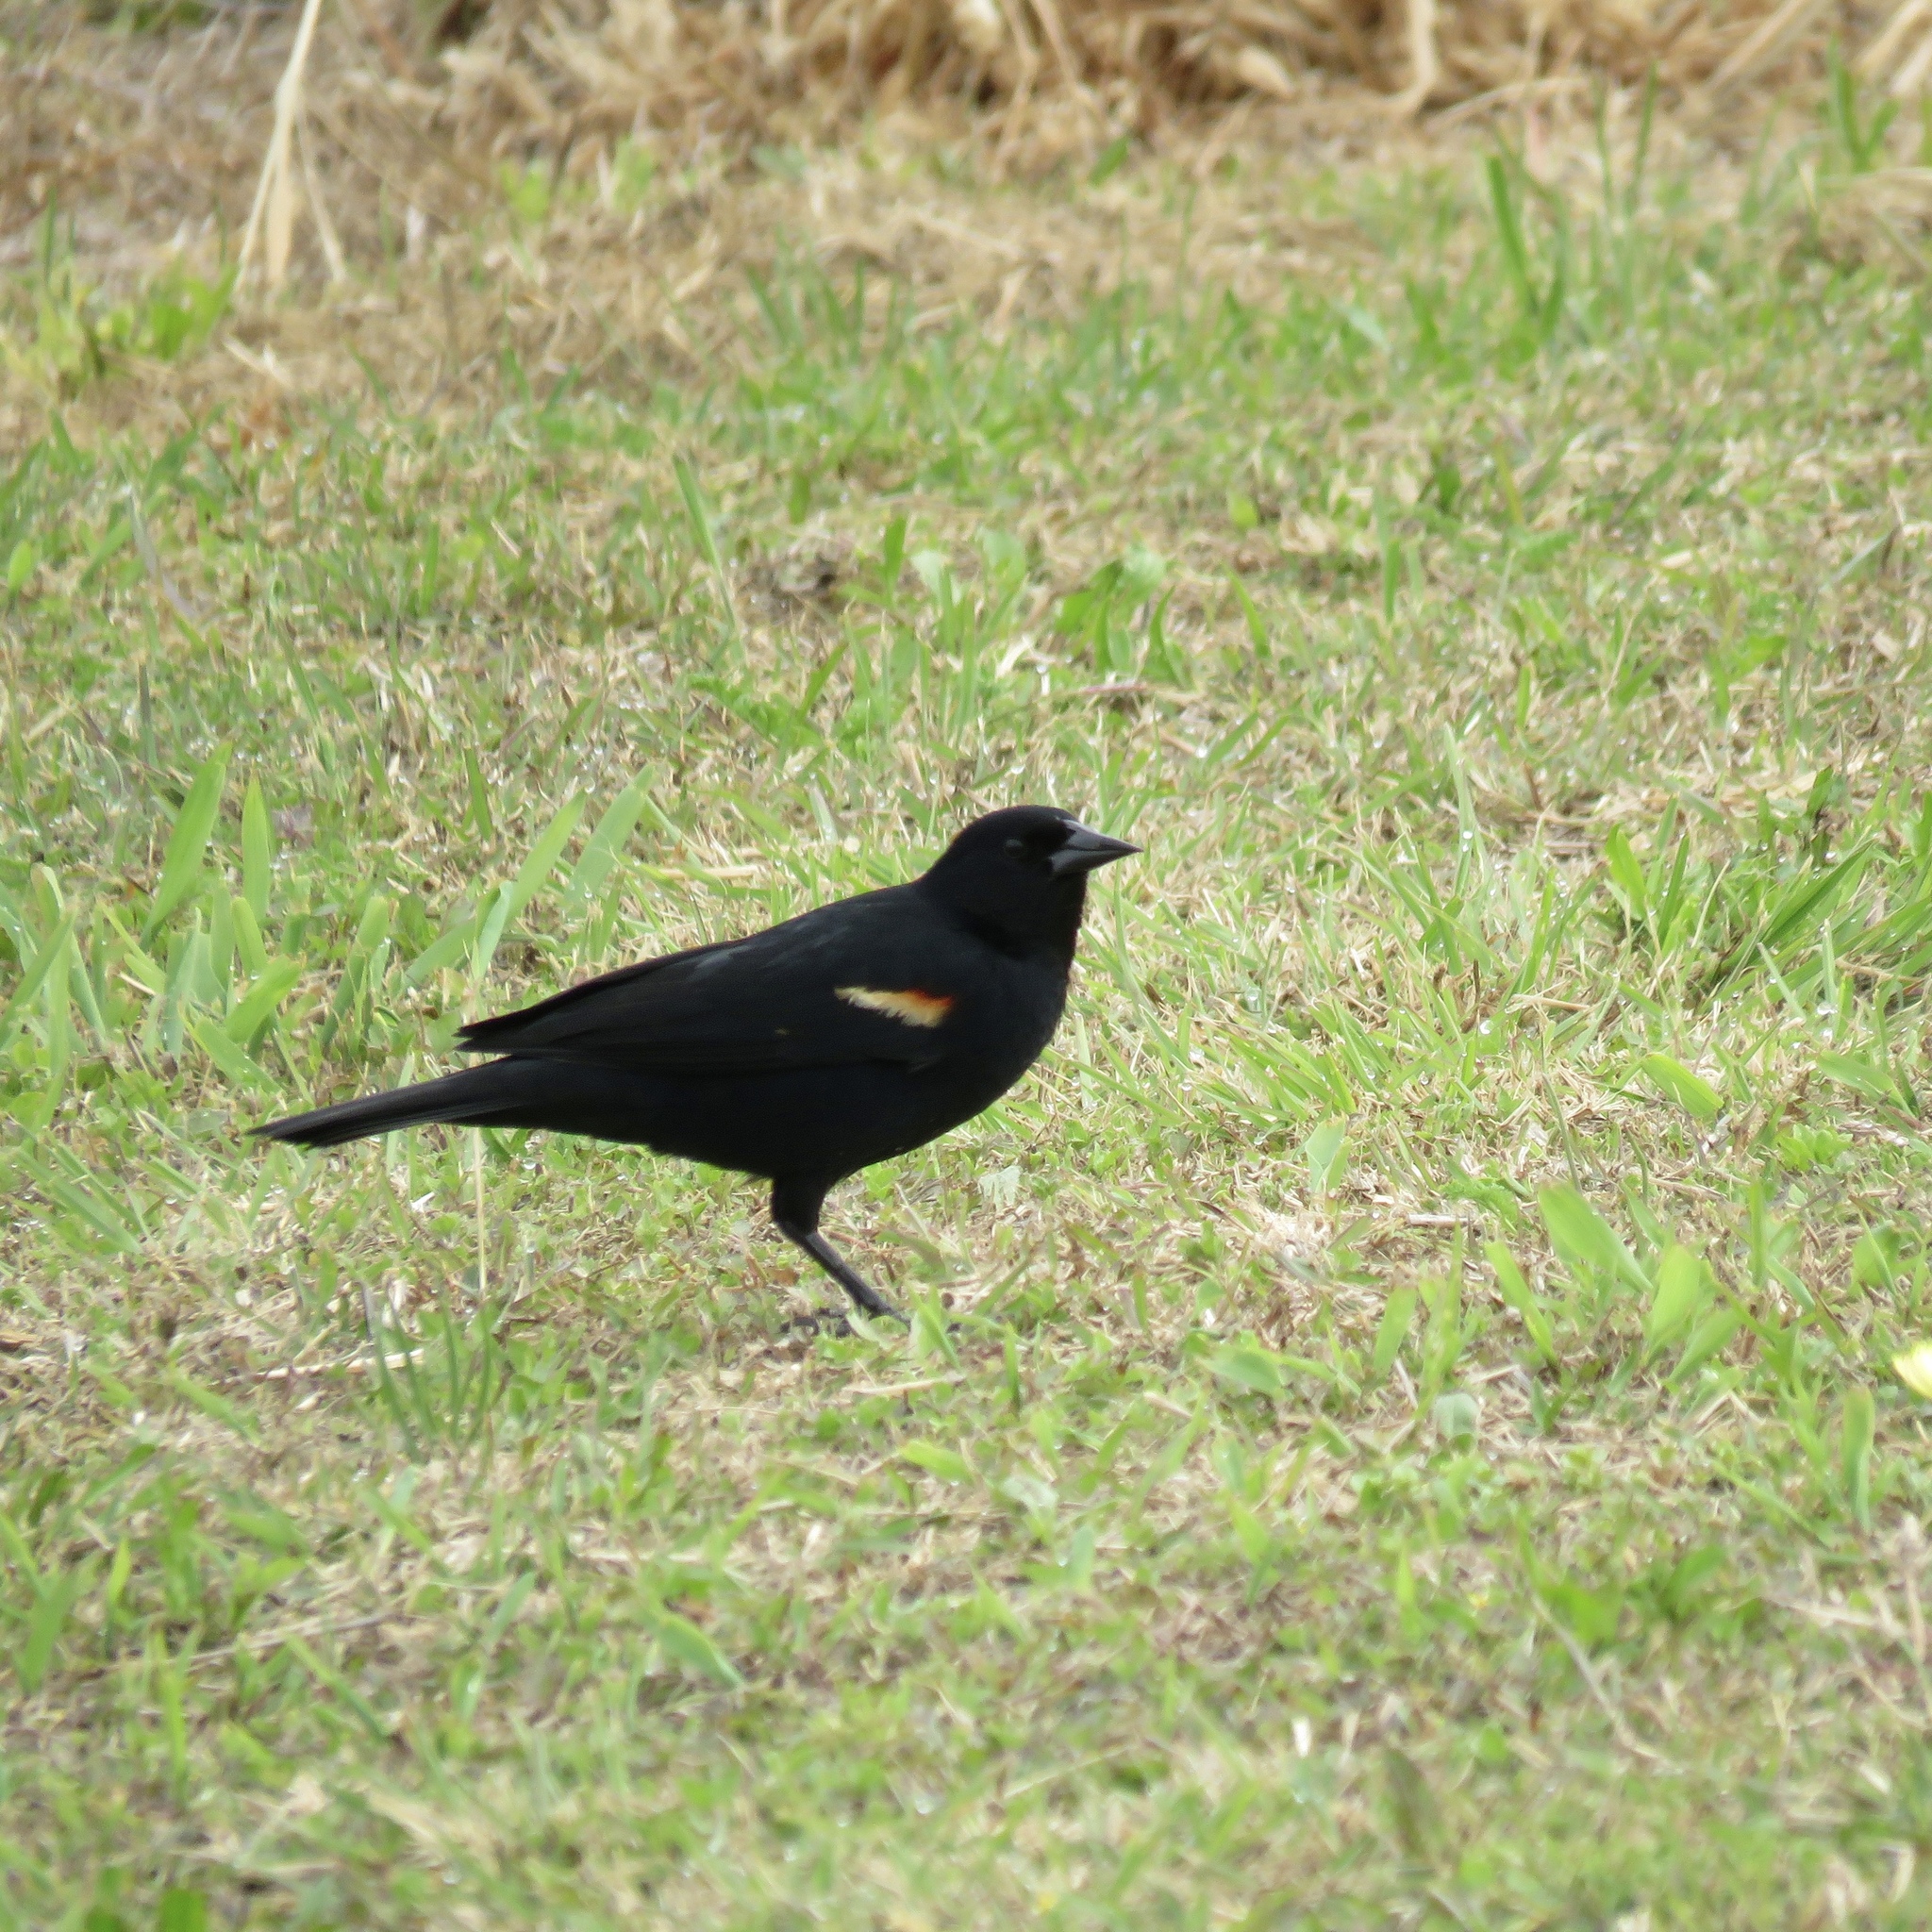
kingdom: Animalia
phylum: Chordata
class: Aves
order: Passeriformes
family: Icteridae
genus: Agelaius
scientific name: Agelaius phoeniceus
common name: Red-winged blackbird
